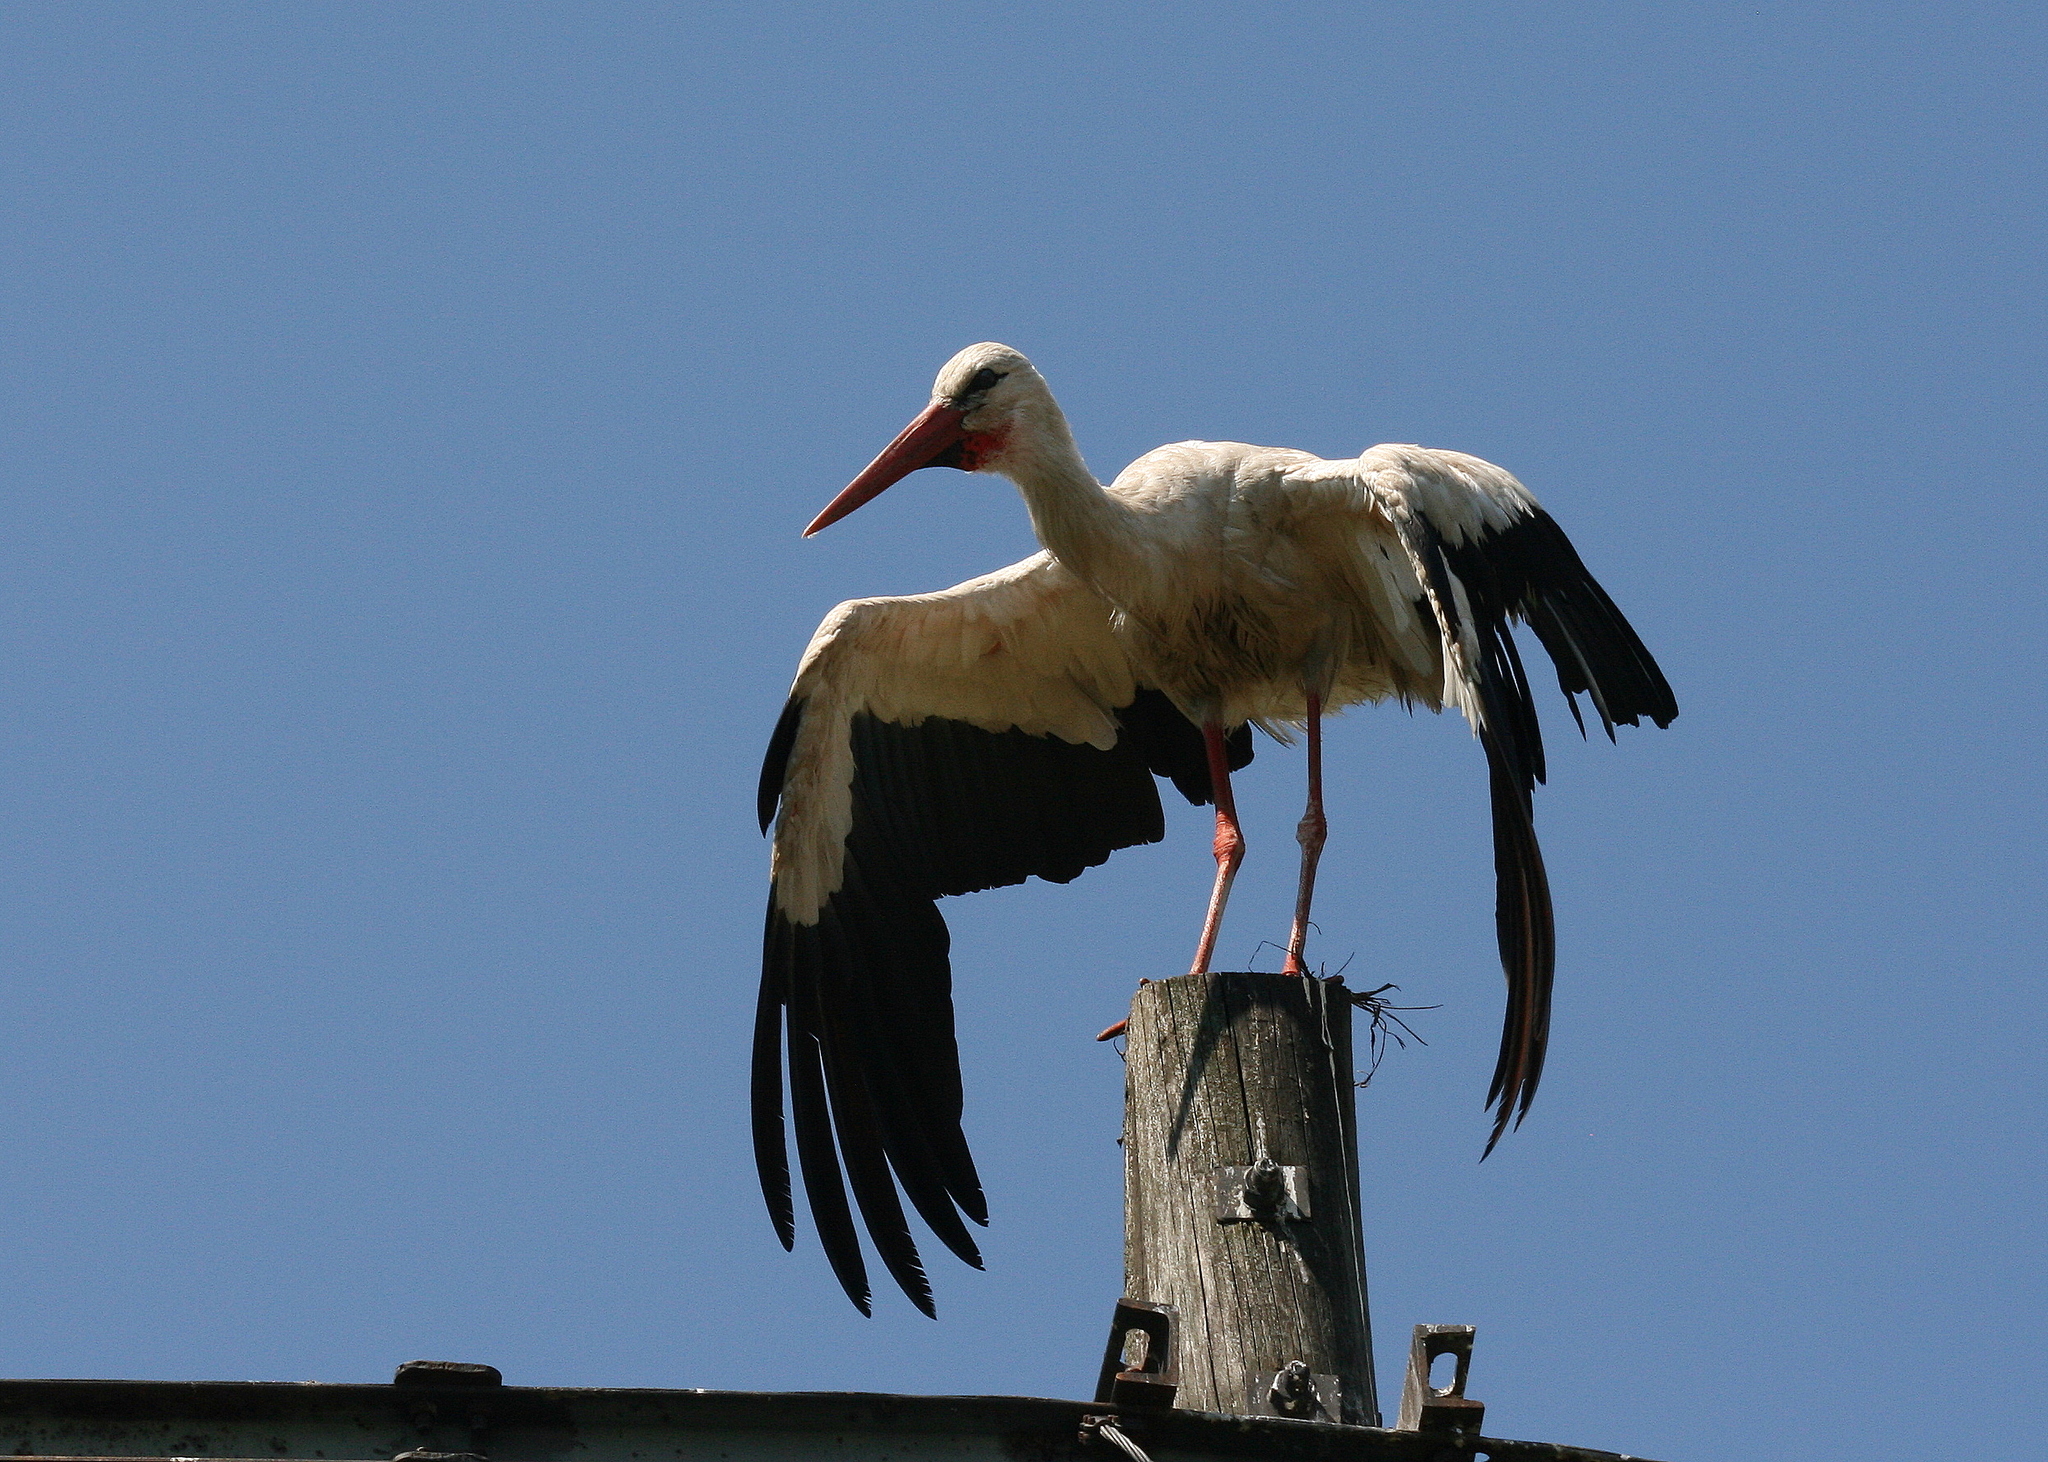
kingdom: Animalia
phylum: Chordata
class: Aves
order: Ciconiiformes
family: Ciconiidae
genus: Ciconia
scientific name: Ciconia ciconia
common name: White stork
